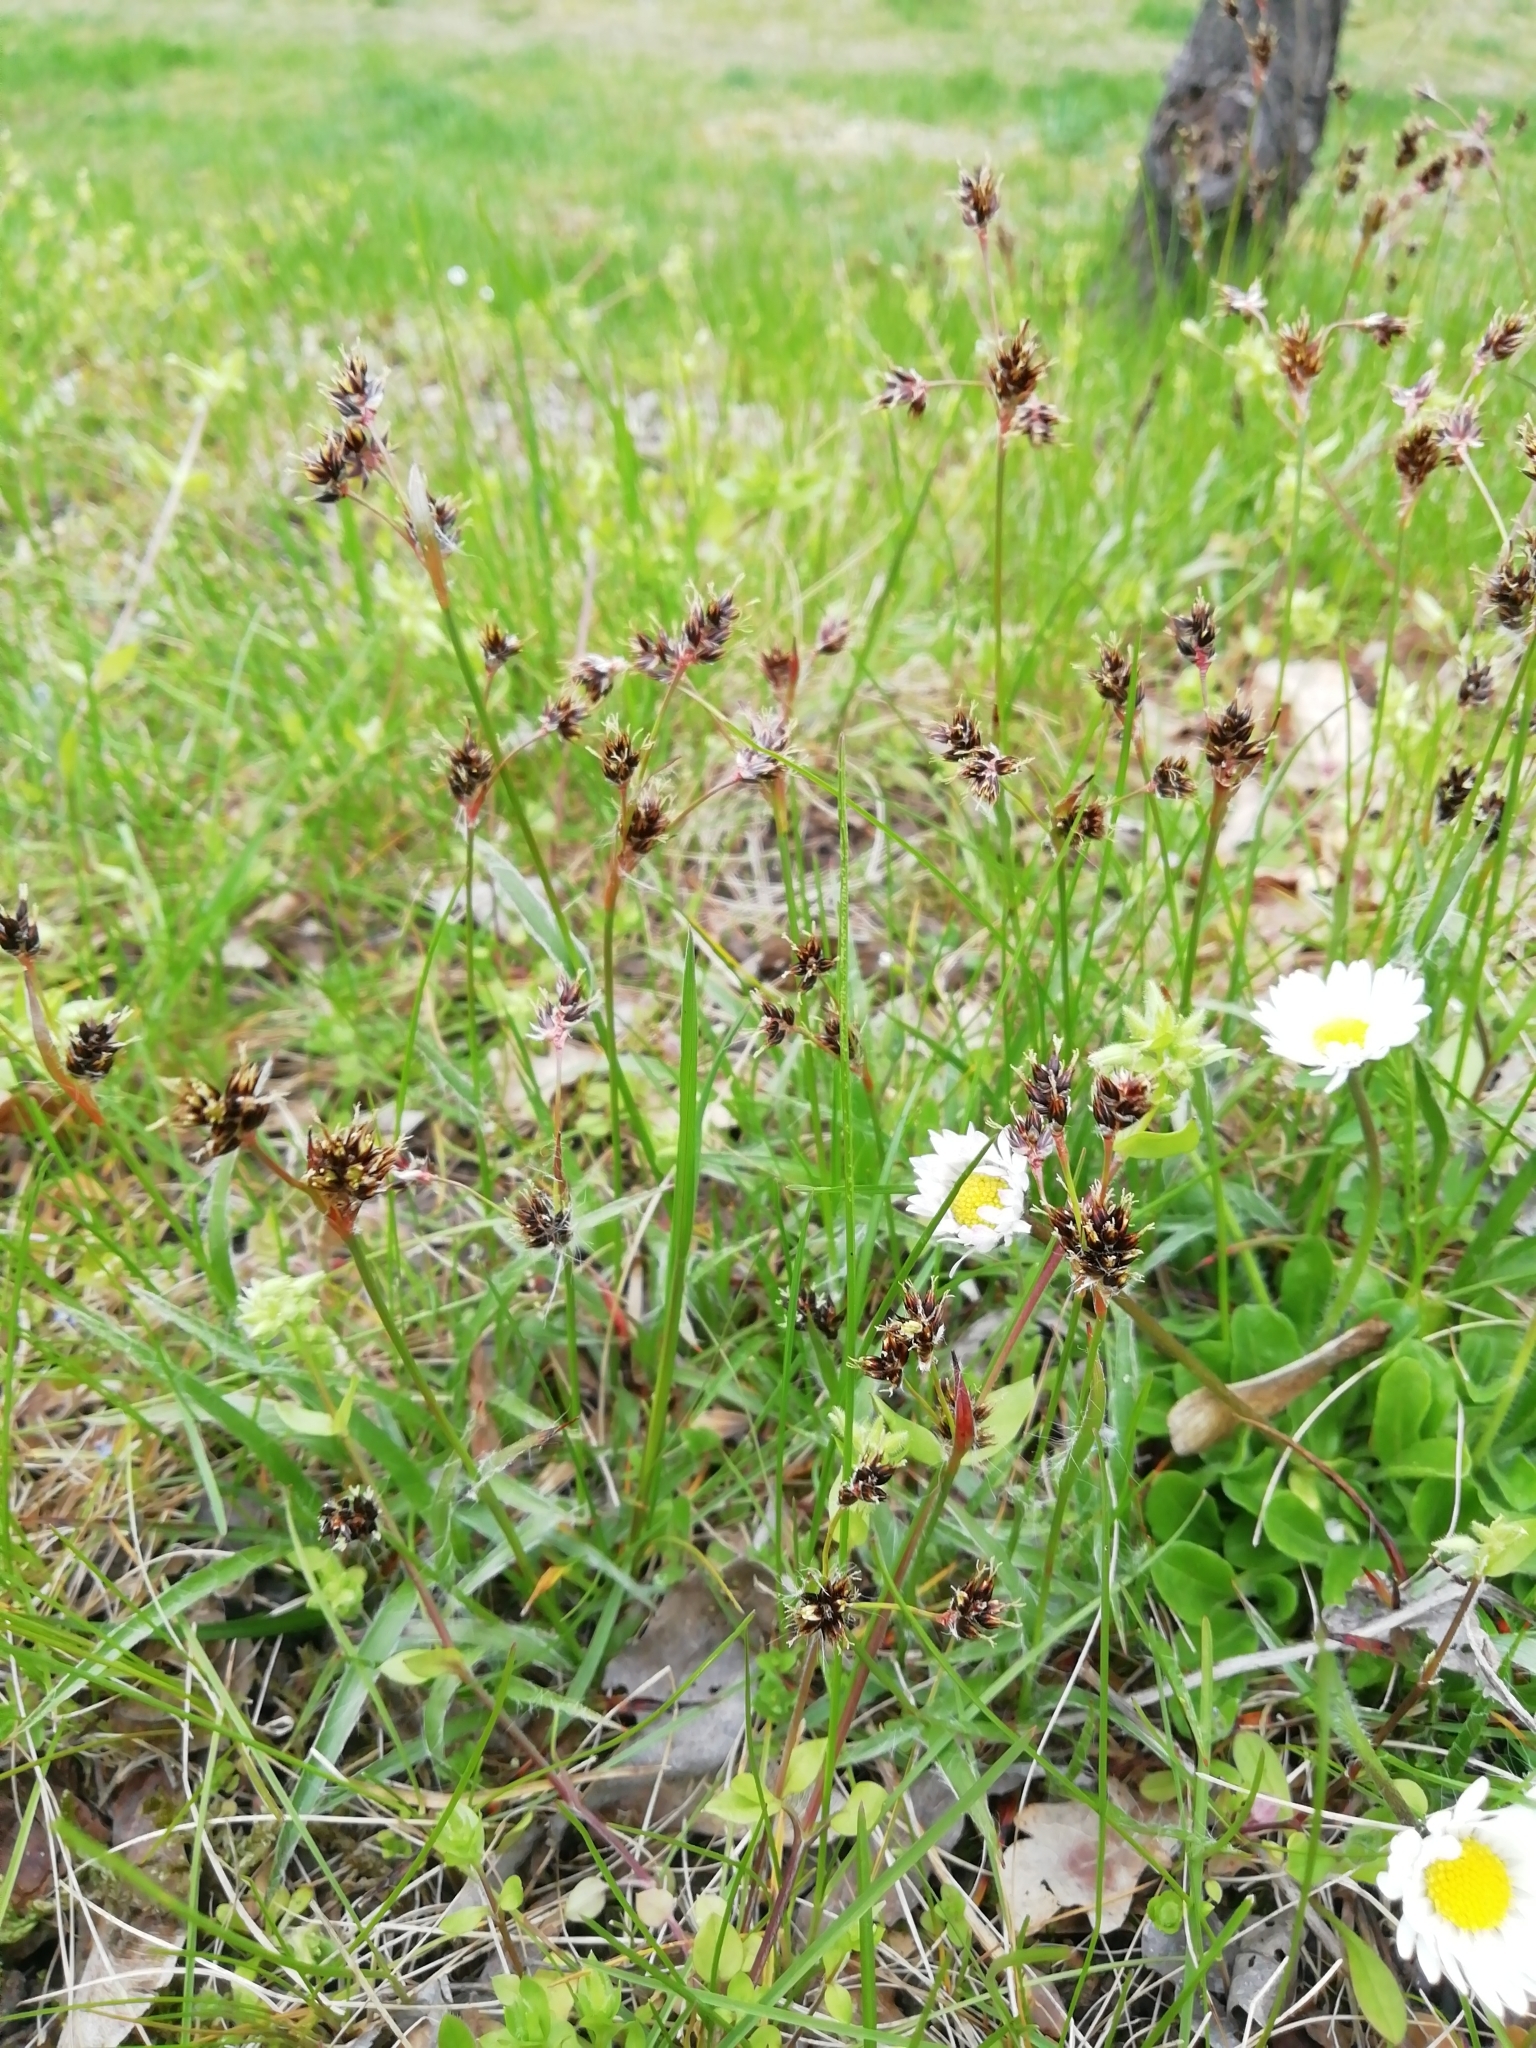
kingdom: Plantae
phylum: Tracheophyta
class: Liliopsida
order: Poales
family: Juncaceae
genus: Luzula
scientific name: Luzula campestris
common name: Field wood-rush
